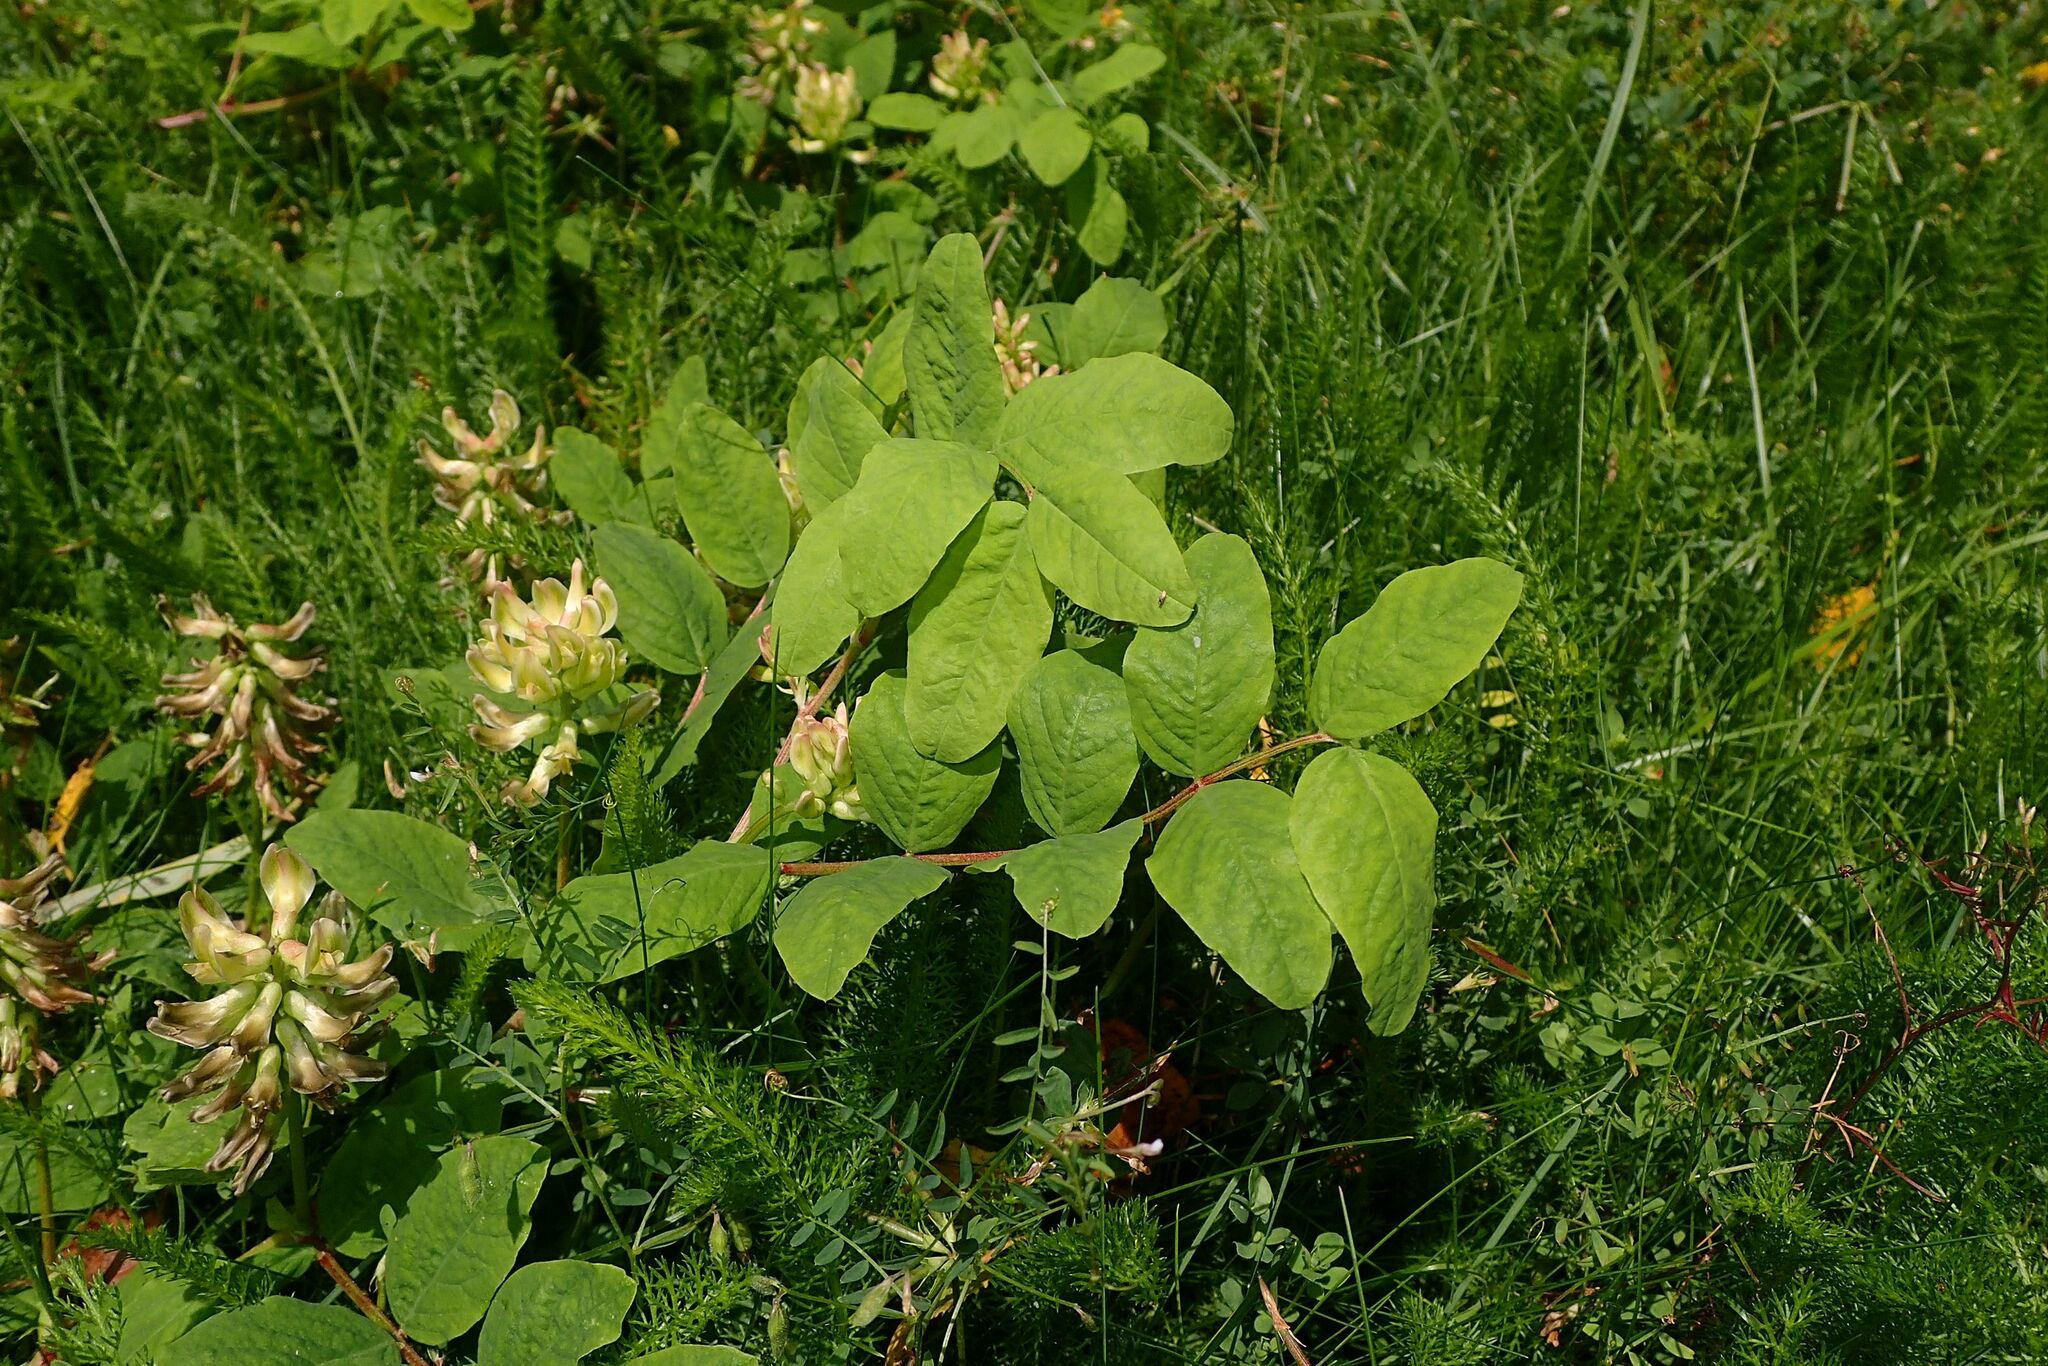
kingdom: Plantae
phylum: Tracheophyta
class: Magnoliopsida
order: Fabales
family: Fabaceae
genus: Astragalus
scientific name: Astragalus glycyphyllos
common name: Wild liquorice
